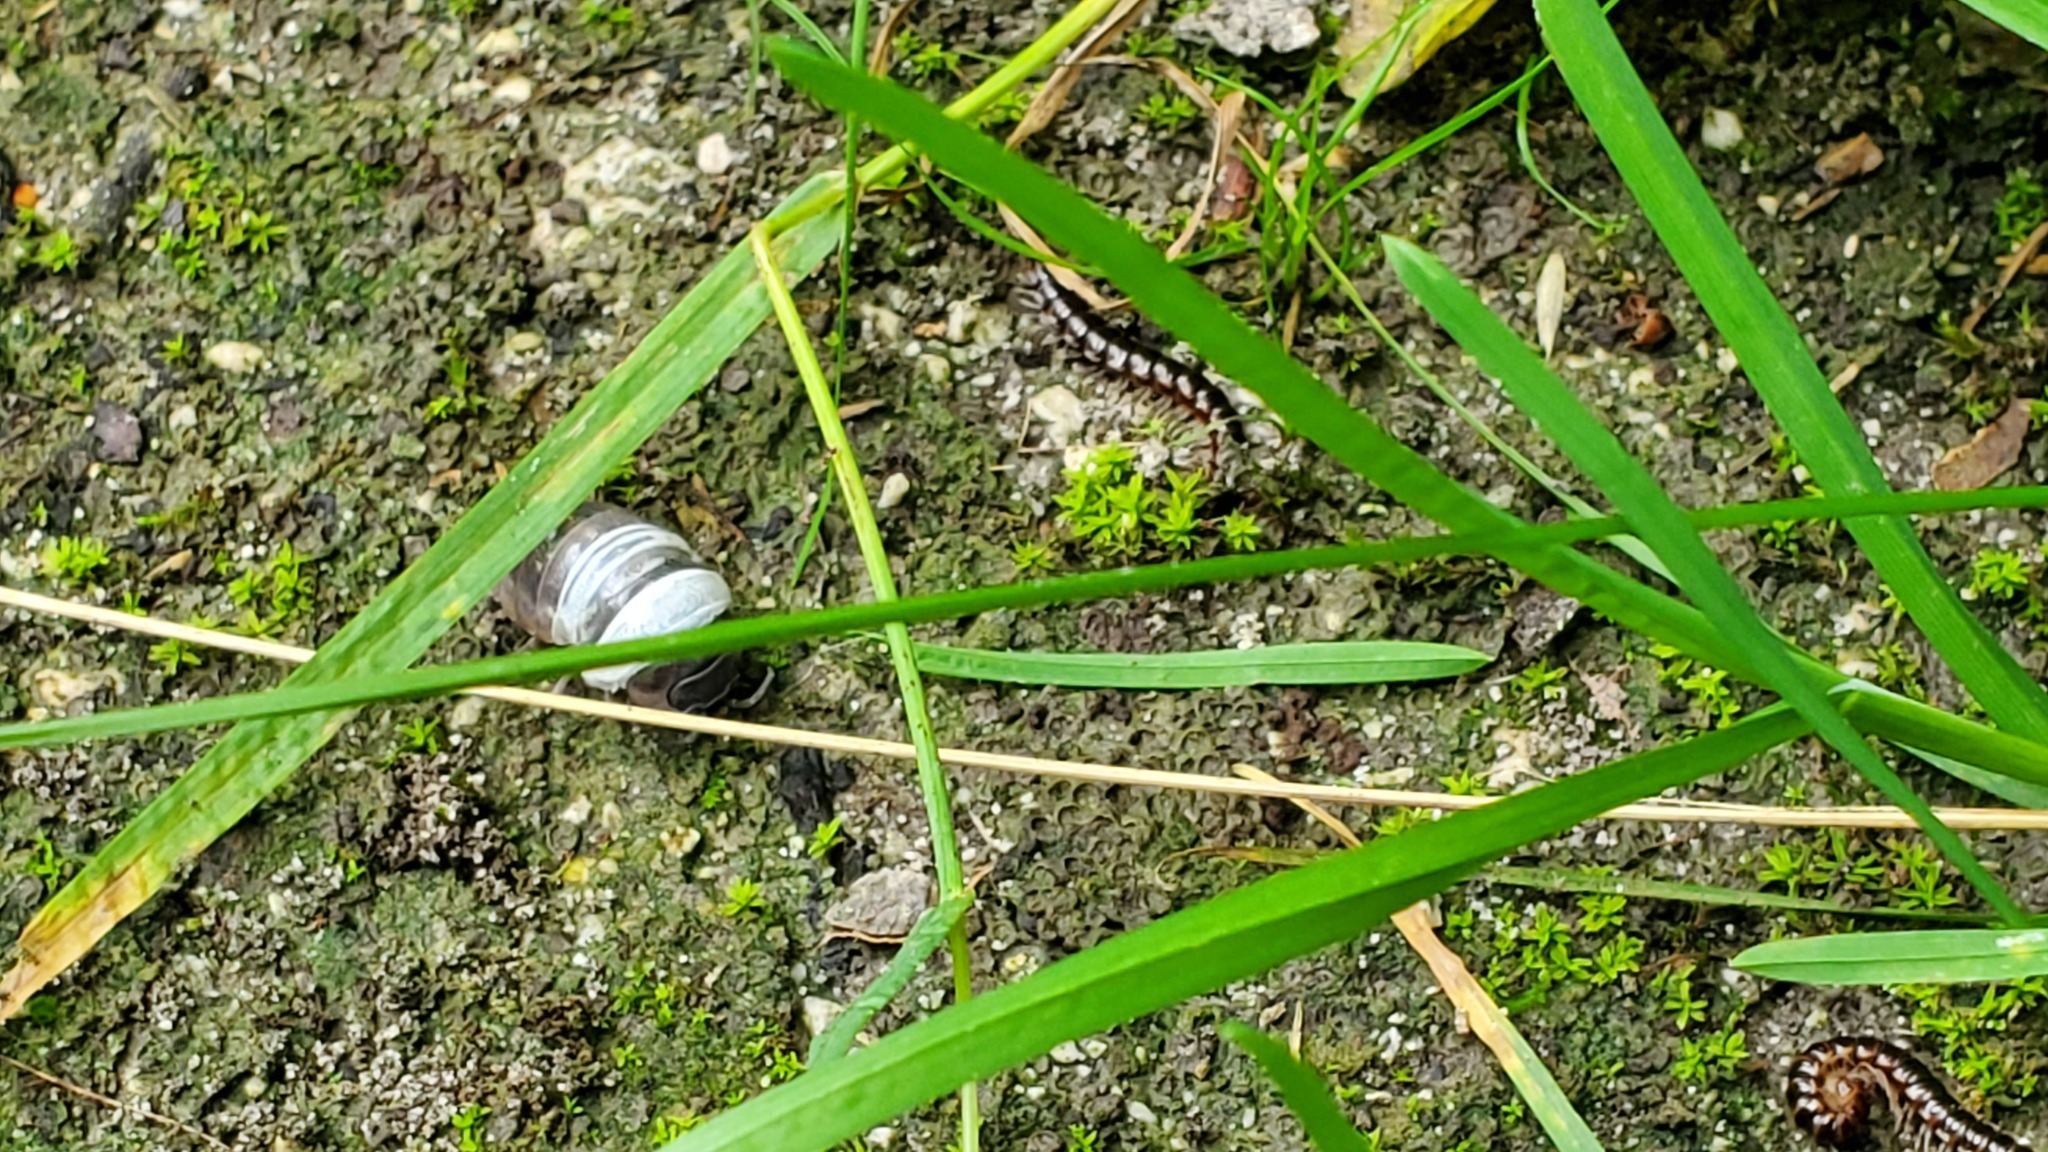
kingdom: Animalia
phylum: Arthropoda
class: Malacostraca
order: Isopoda
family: Armadillidiidae
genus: Armadillidium
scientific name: Armadillidium vulgare
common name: Common pill woodlouse
